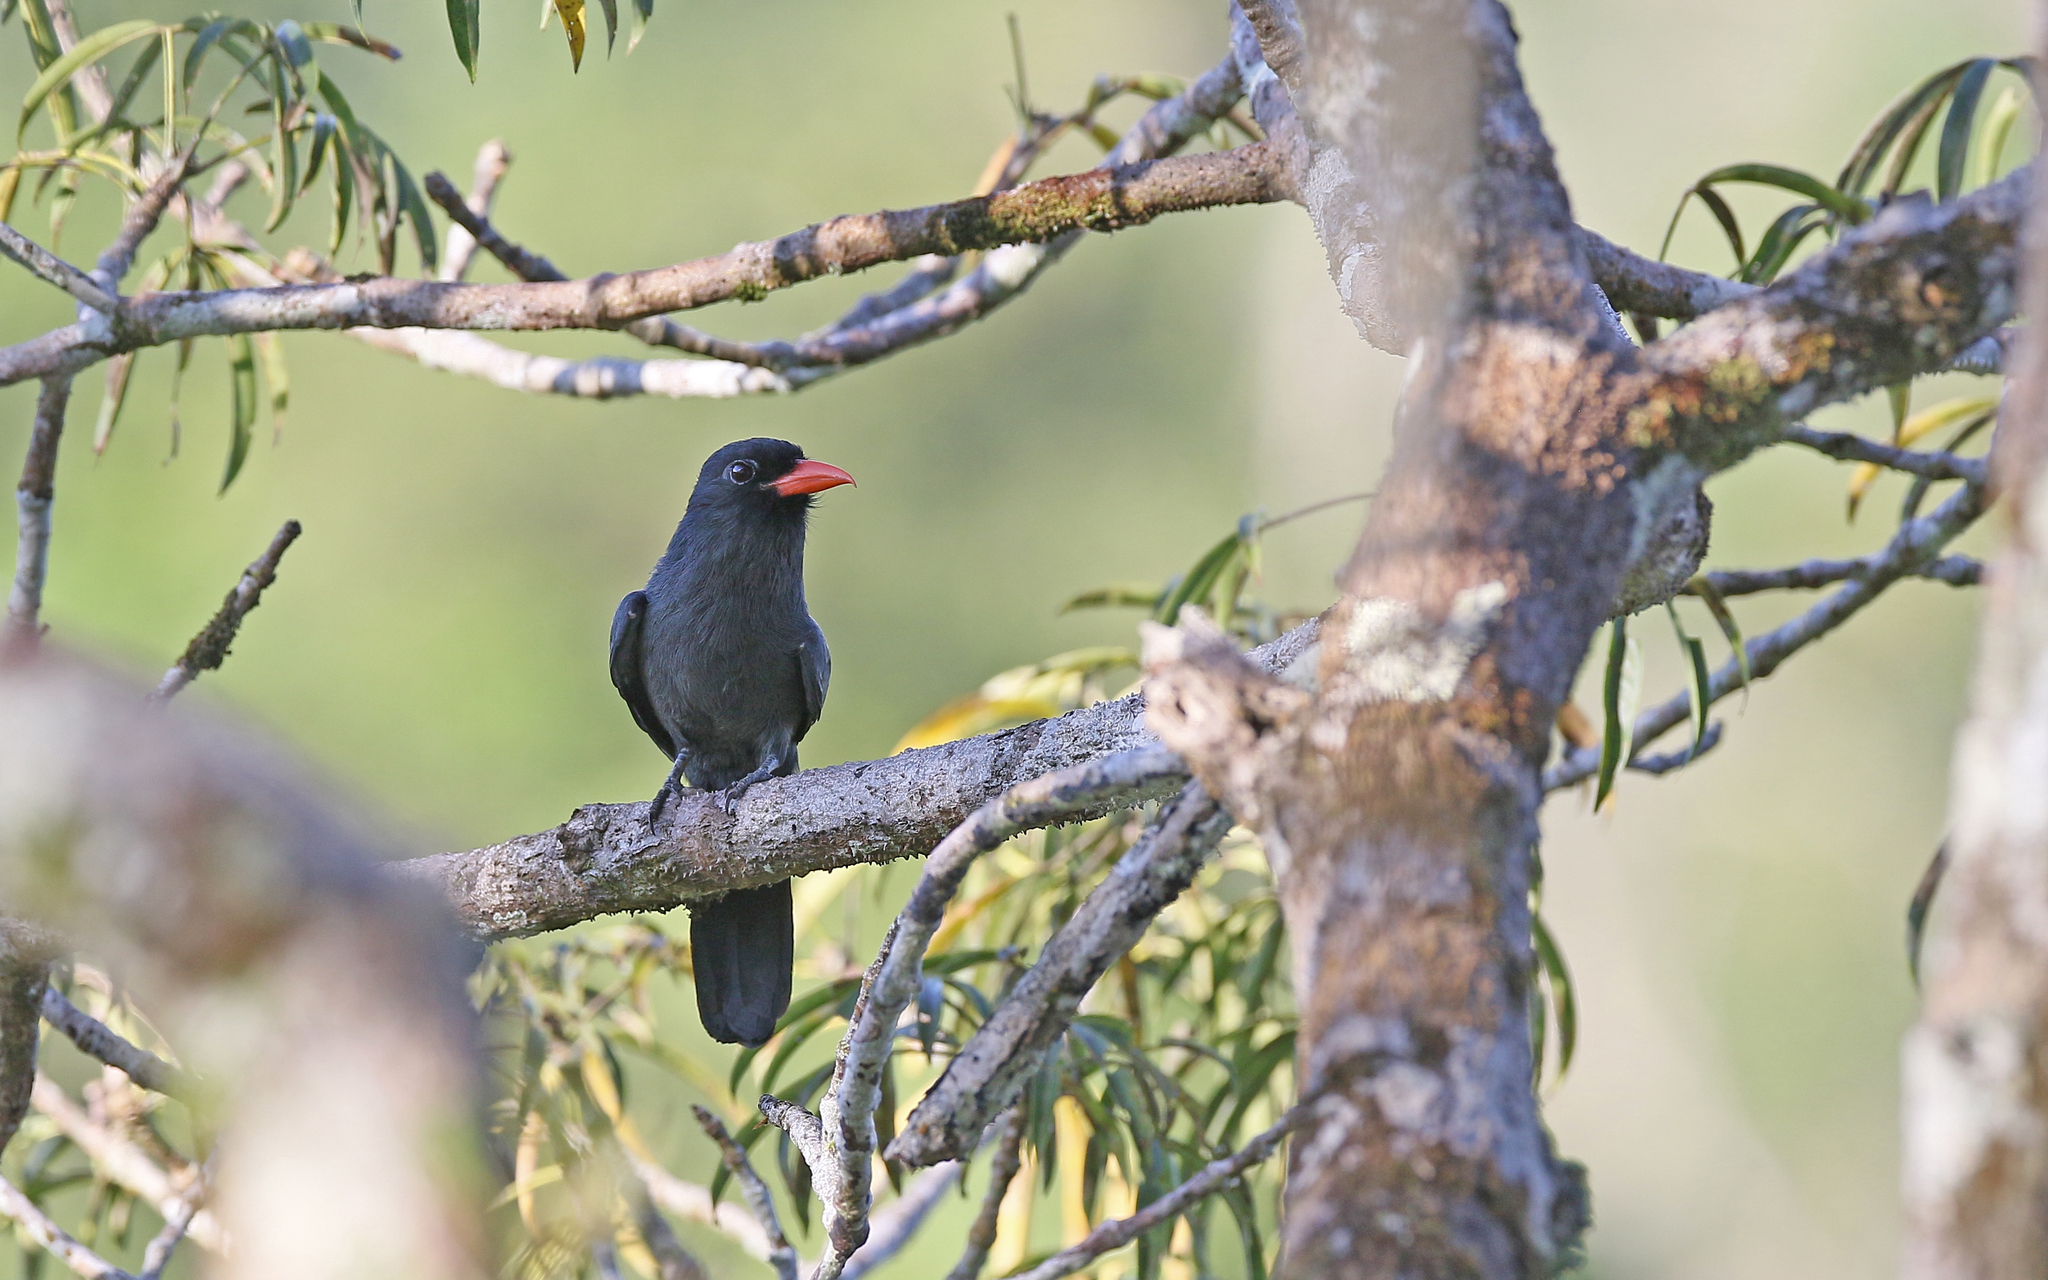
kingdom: Animalia
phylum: Chordata
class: Aves
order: Piciformes
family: Bucconidae
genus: Monasa
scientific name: Monasa nigrifrons
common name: Black-fronted nunbird
